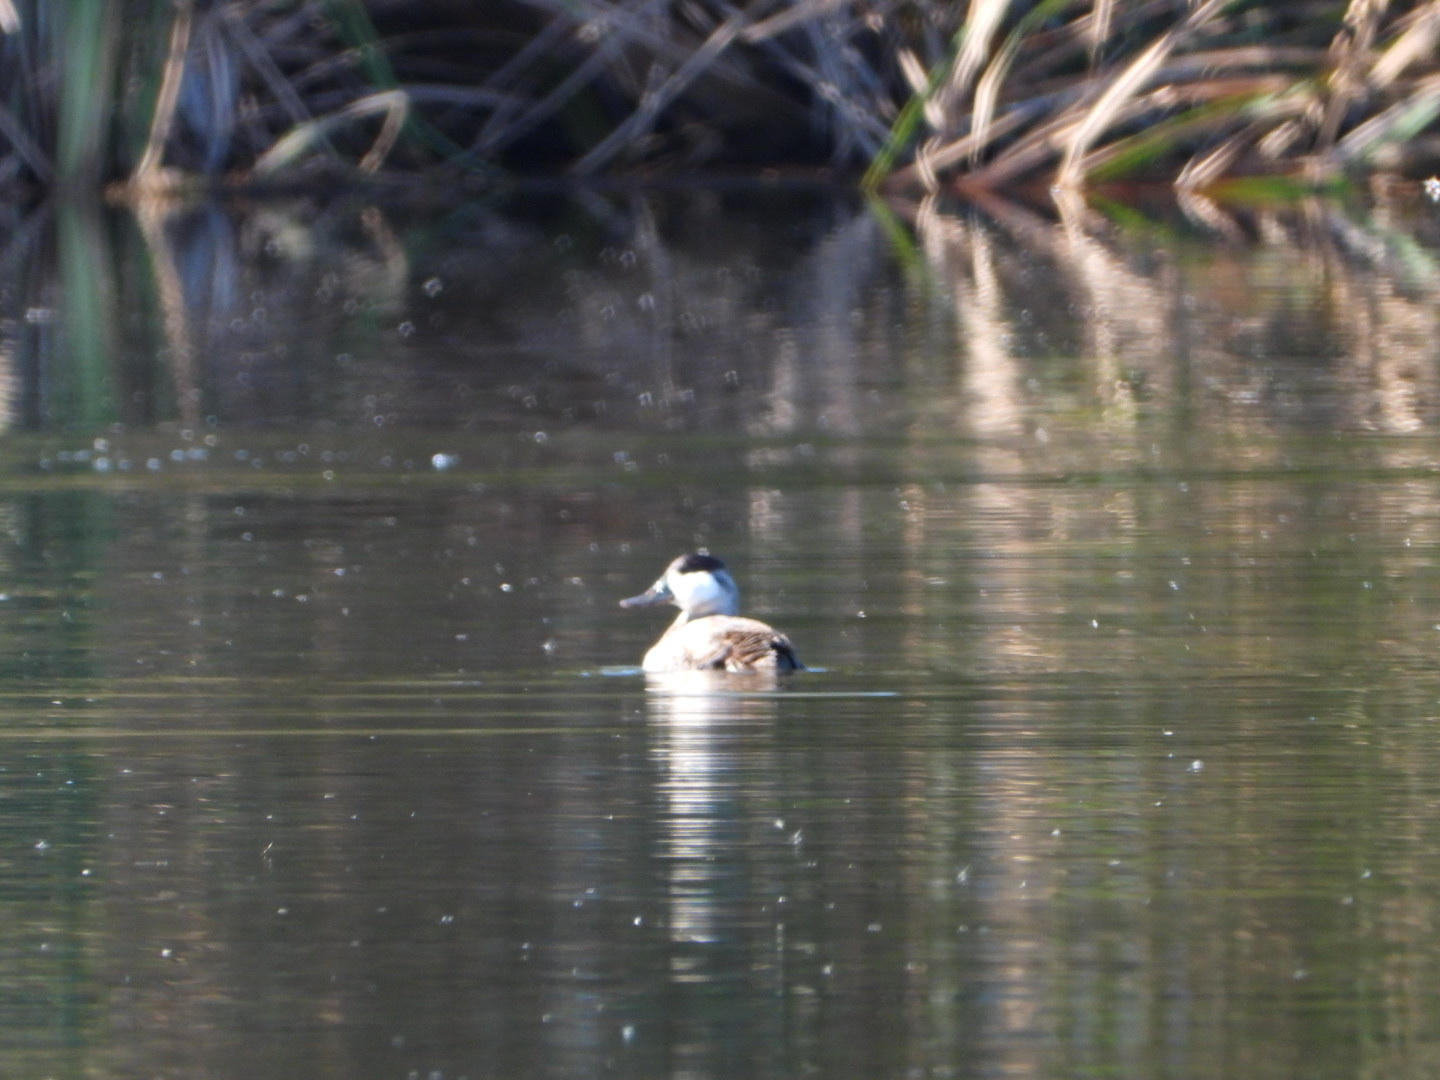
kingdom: Animalia
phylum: Chordata
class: Aves
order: Anseriformes
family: Anatidae
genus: Oxyura
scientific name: Oxyura jamaicensis
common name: Ruddy duck
